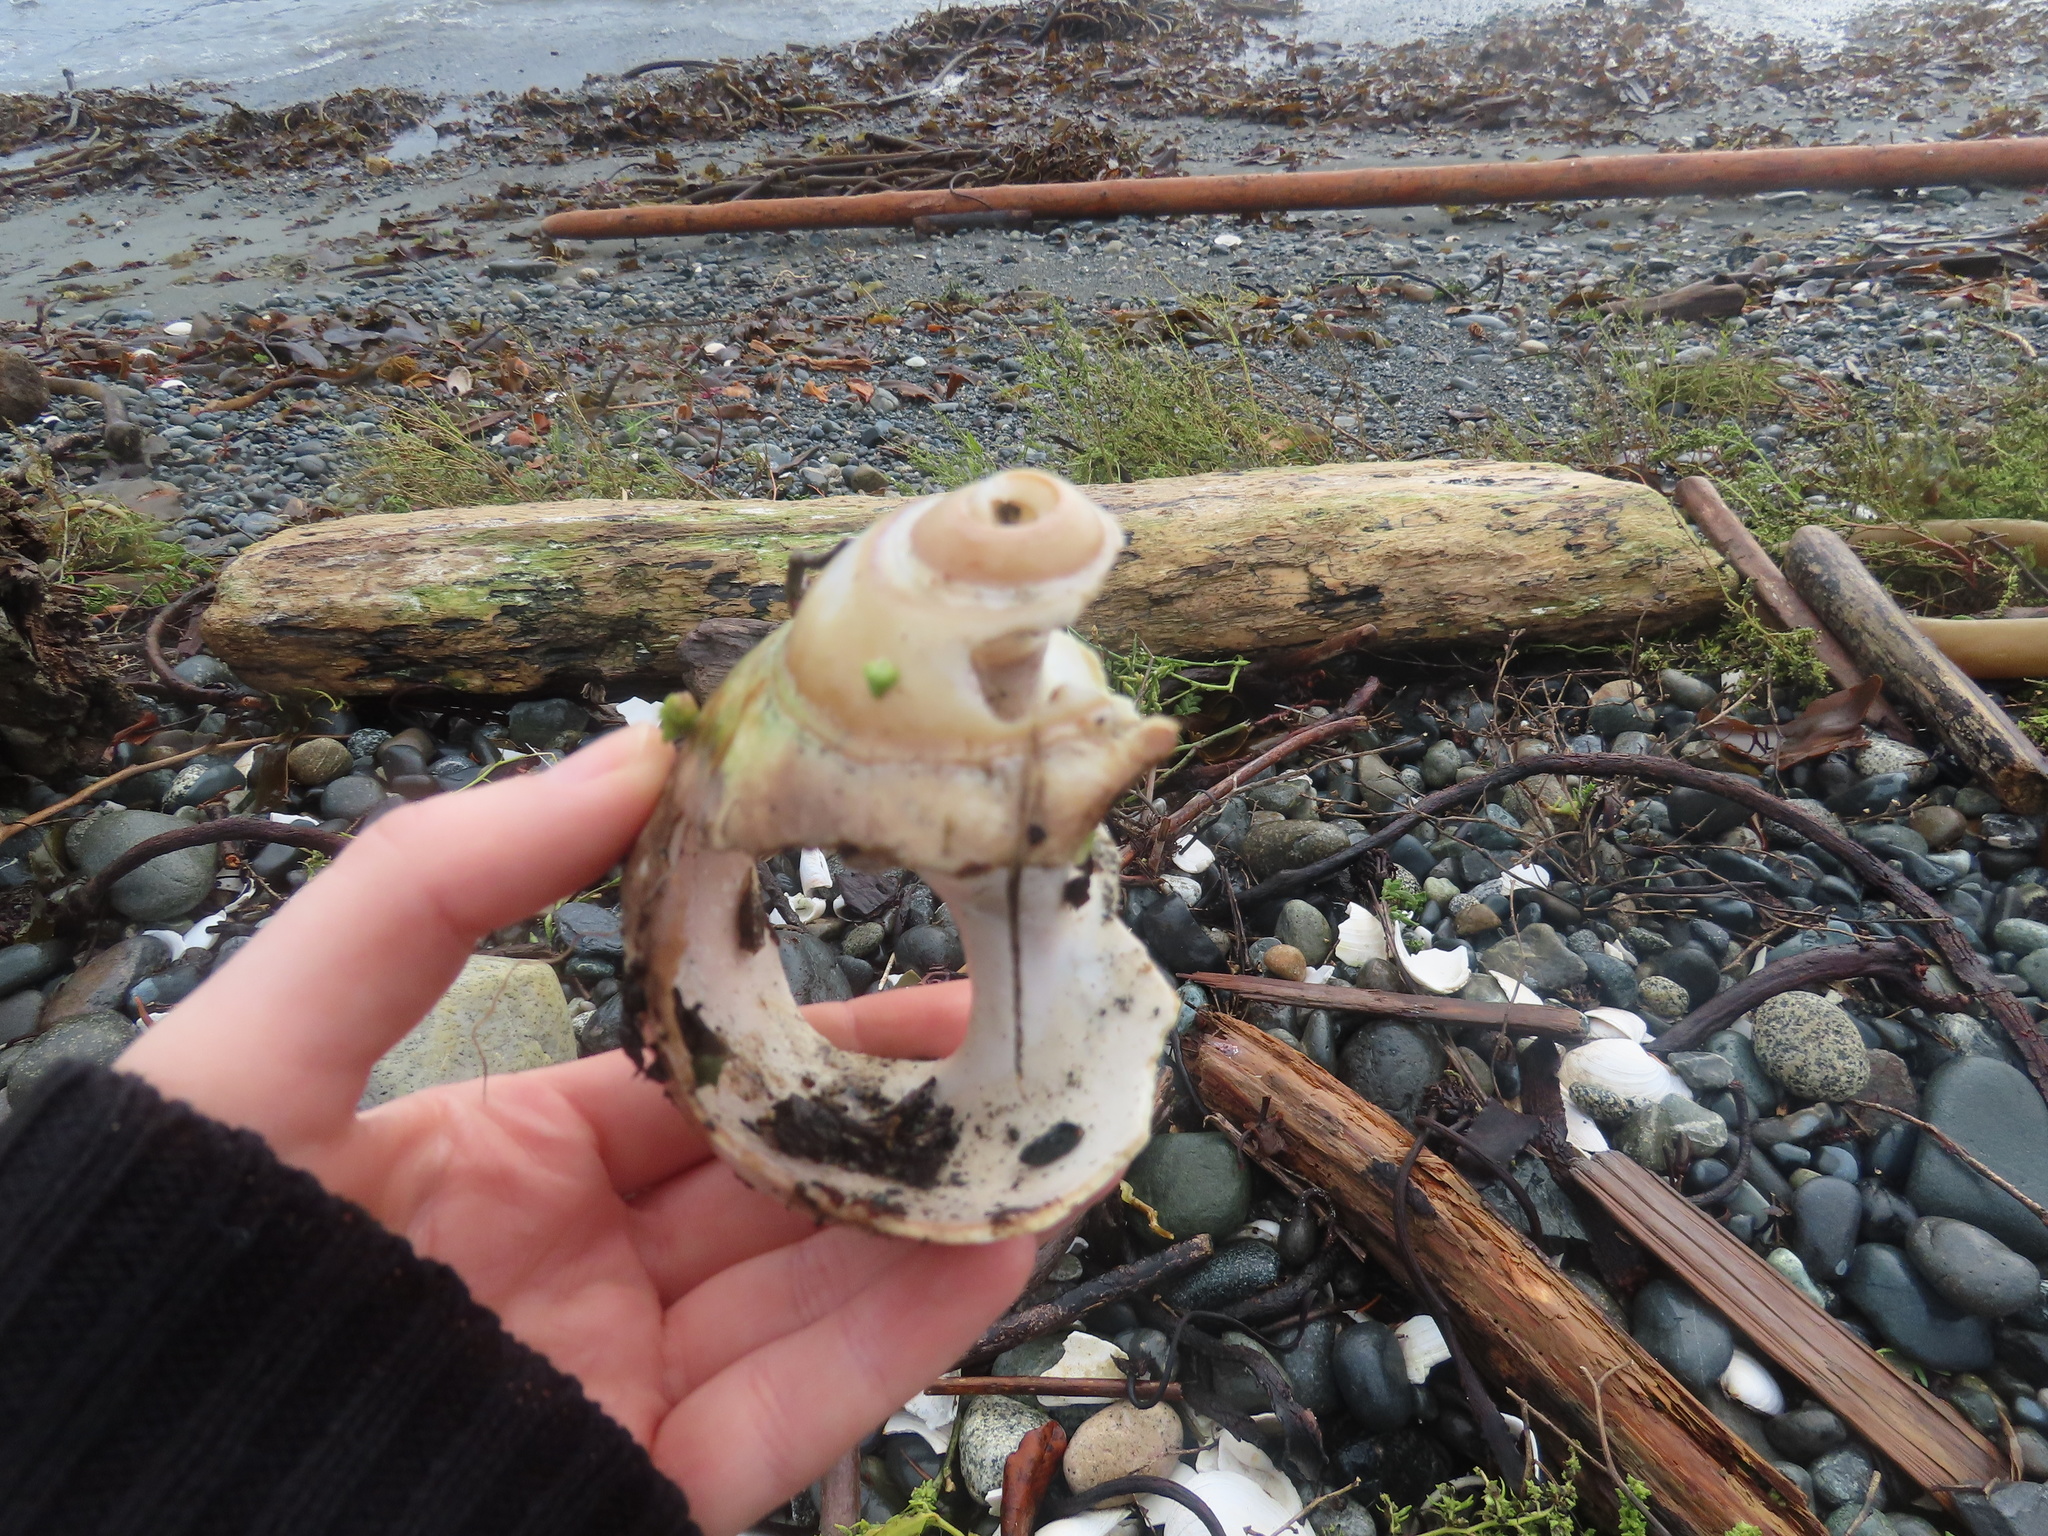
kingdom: Animalia
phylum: Mollusca
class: Gastropoda
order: Littorinimorpha
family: Naticidae
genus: Neverita
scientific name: Neverita lewisii
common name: Lewis' moonsnail
